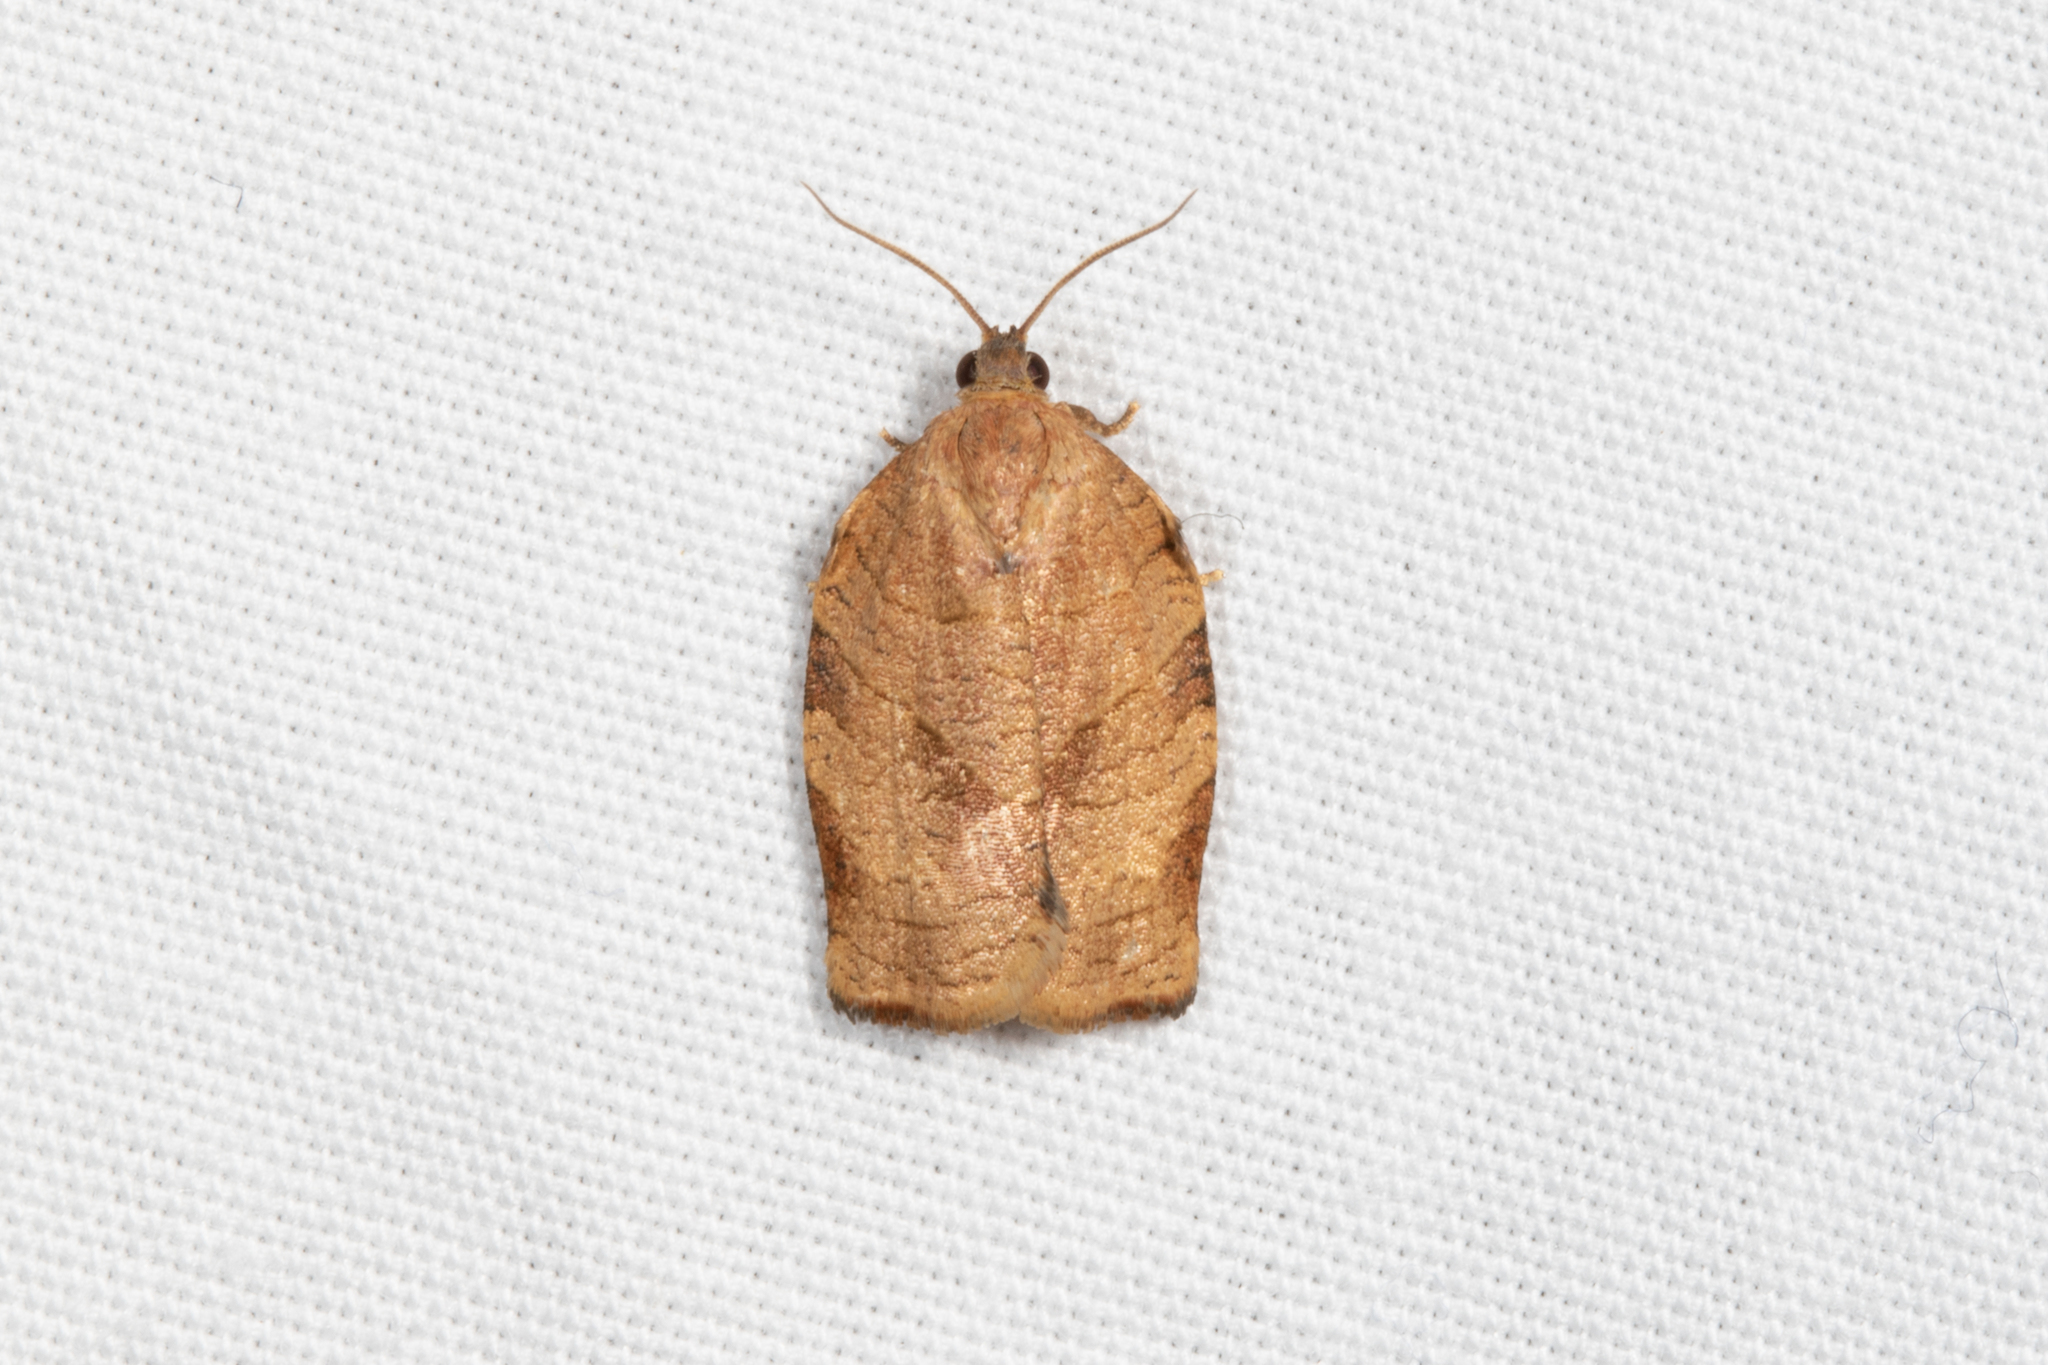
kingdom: Animalia
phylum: Arthropoda
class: Insecta
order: Lepidoptera
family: Tortricidae
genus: Choristoneura
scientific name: Choristoneura rosaceana
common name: Oblique-banded leafroller moth
